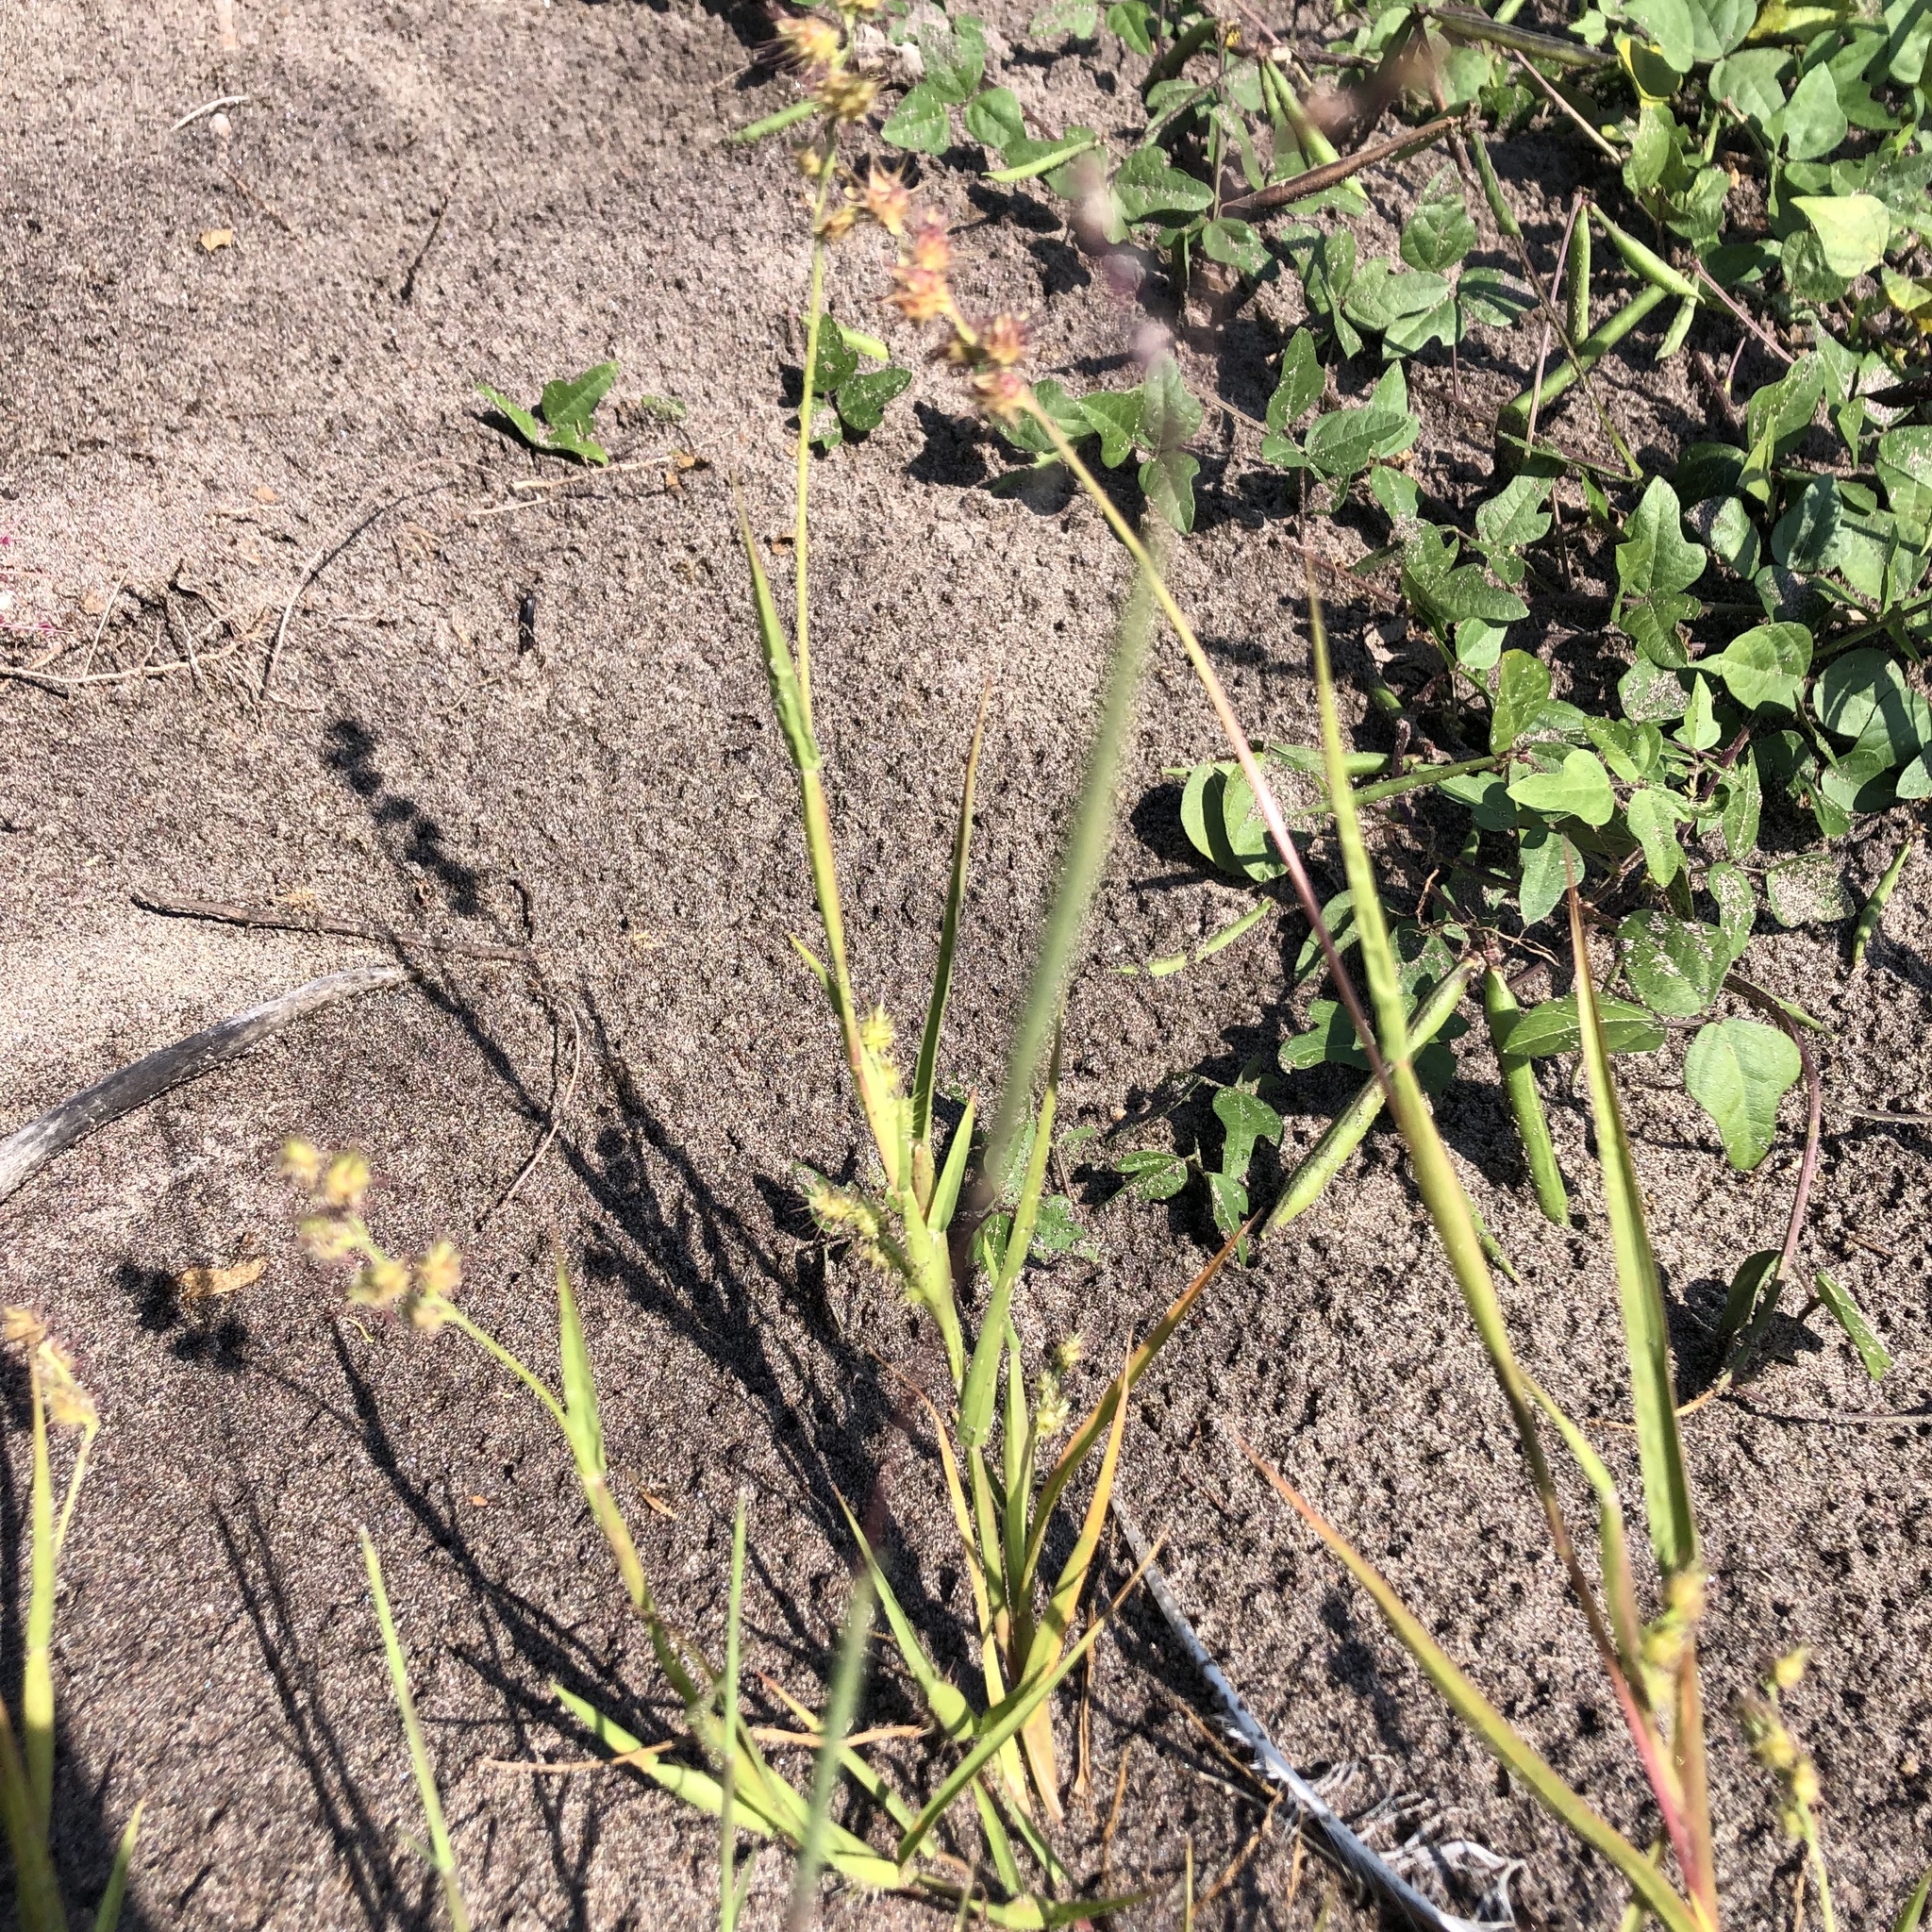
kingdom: Plantae
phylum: Tracheophyta
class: Liliopsida
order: Poales
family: Poaceae
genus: Cenchrus
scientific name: Cenchrus longispinus
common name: Mat sandbur
